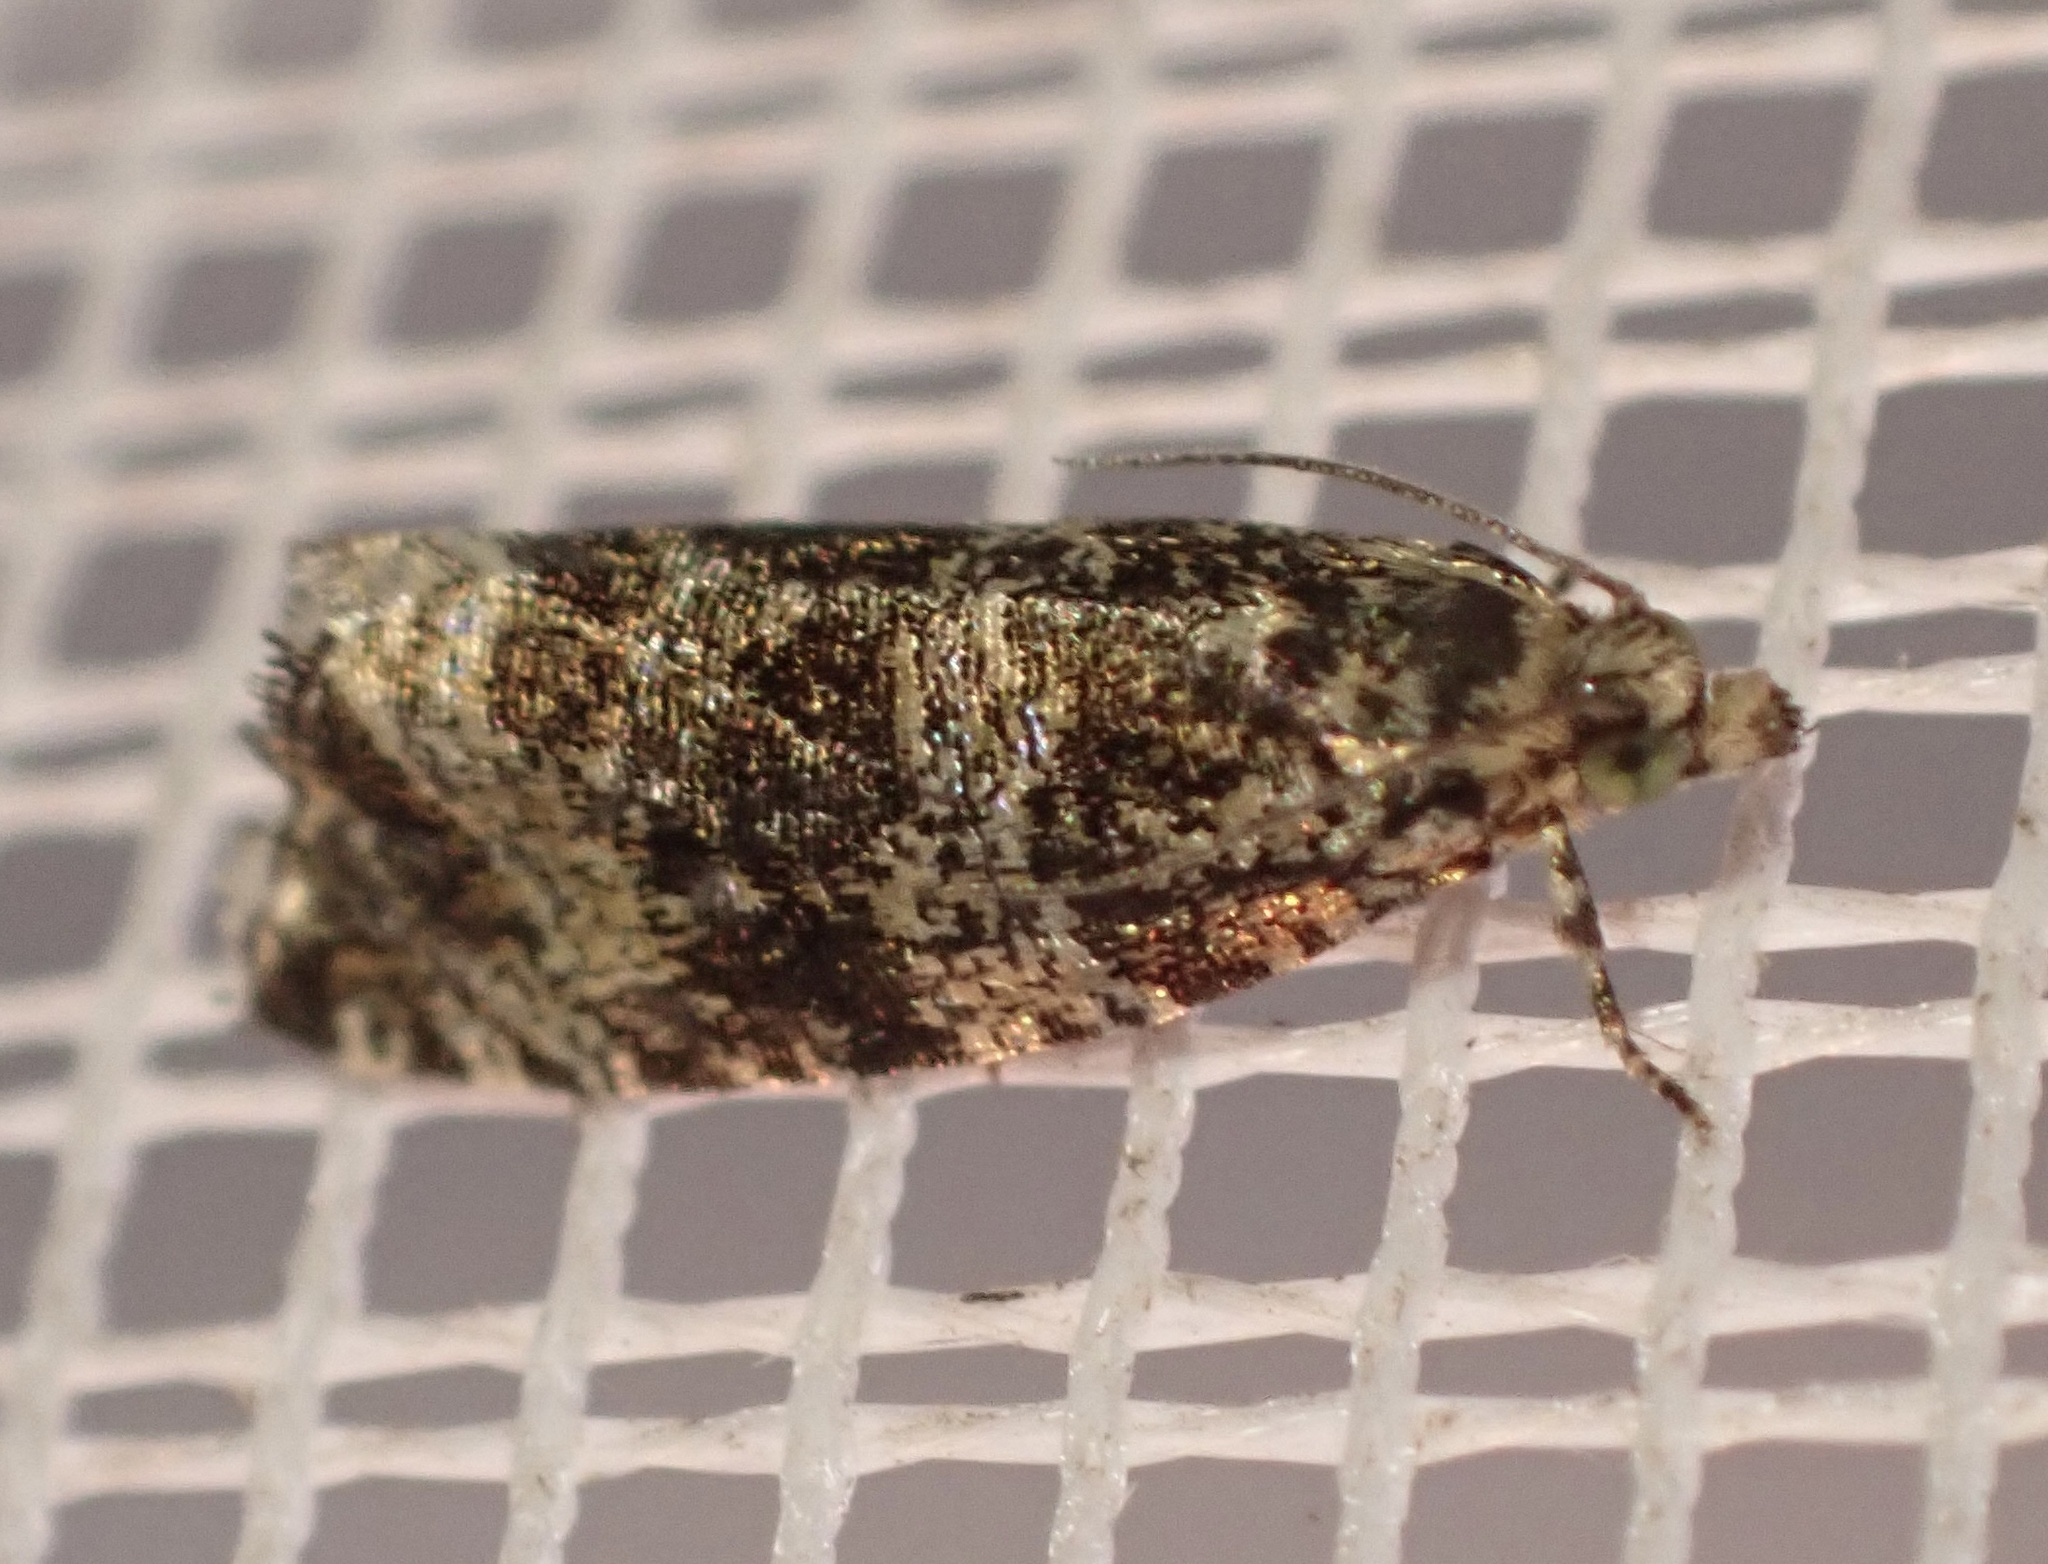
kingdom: Animalia
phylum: Arthropoda
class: Insecta
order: Lepidoptera
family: Tortricidae
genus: Syricoris
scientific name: Syricoris lacunana
